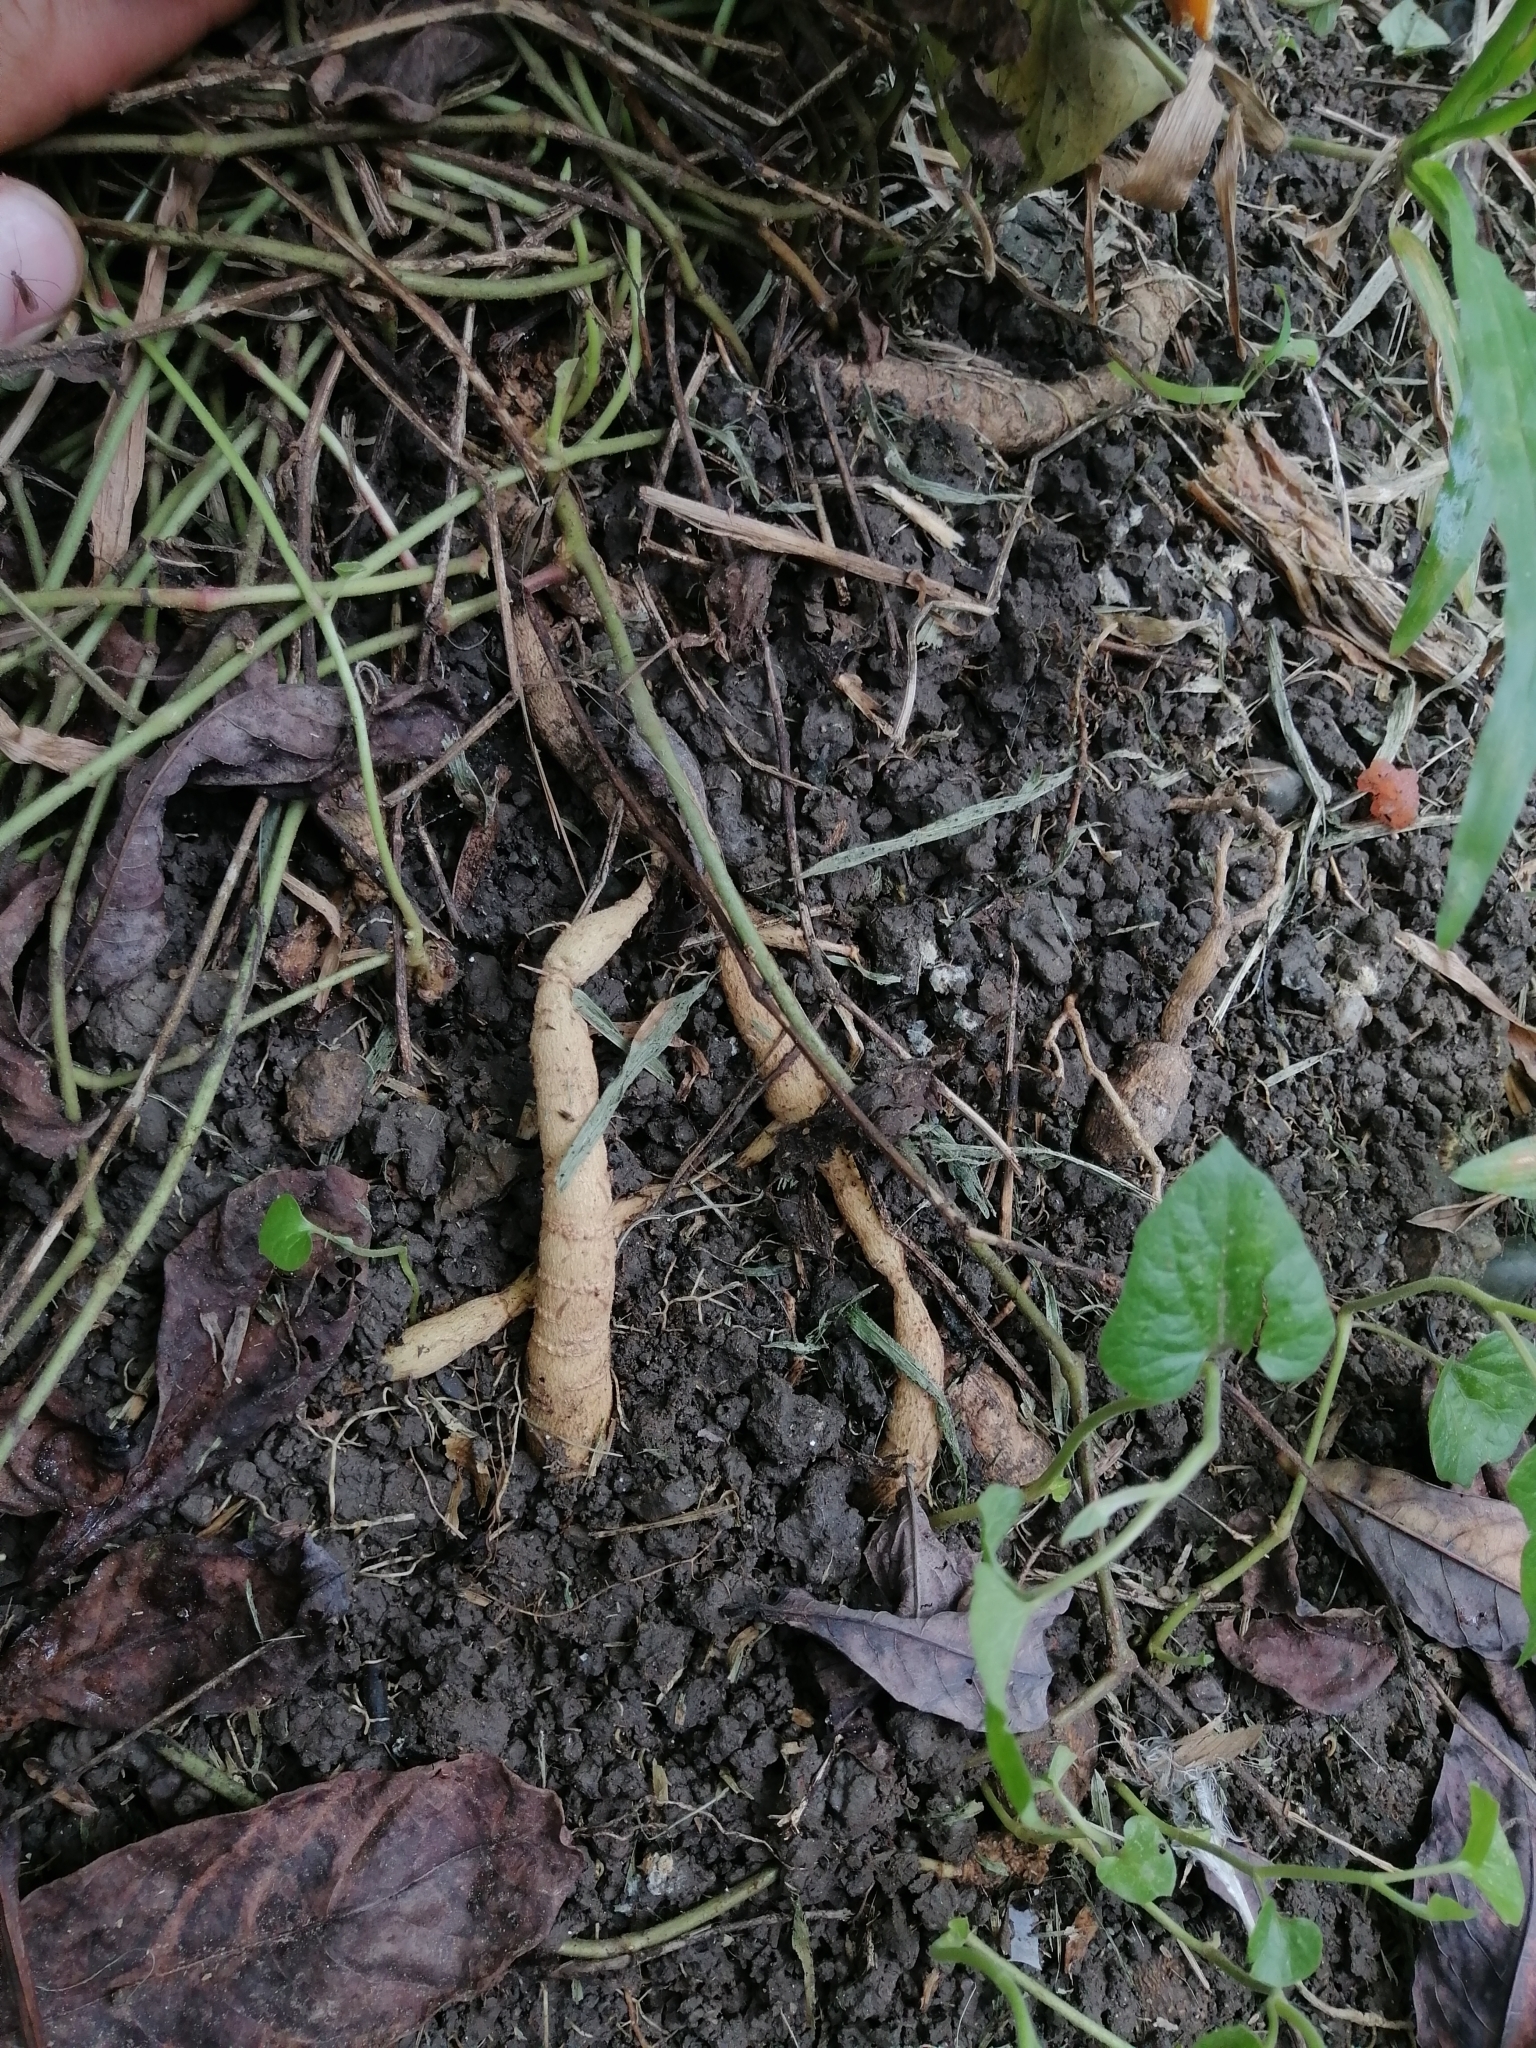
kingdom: Plantae
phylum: Tracheophyta
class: Magnoliopsida
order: Piperales
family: Aristolochiaceae
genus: Aristolochia
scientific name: Aristolochia pentandra
